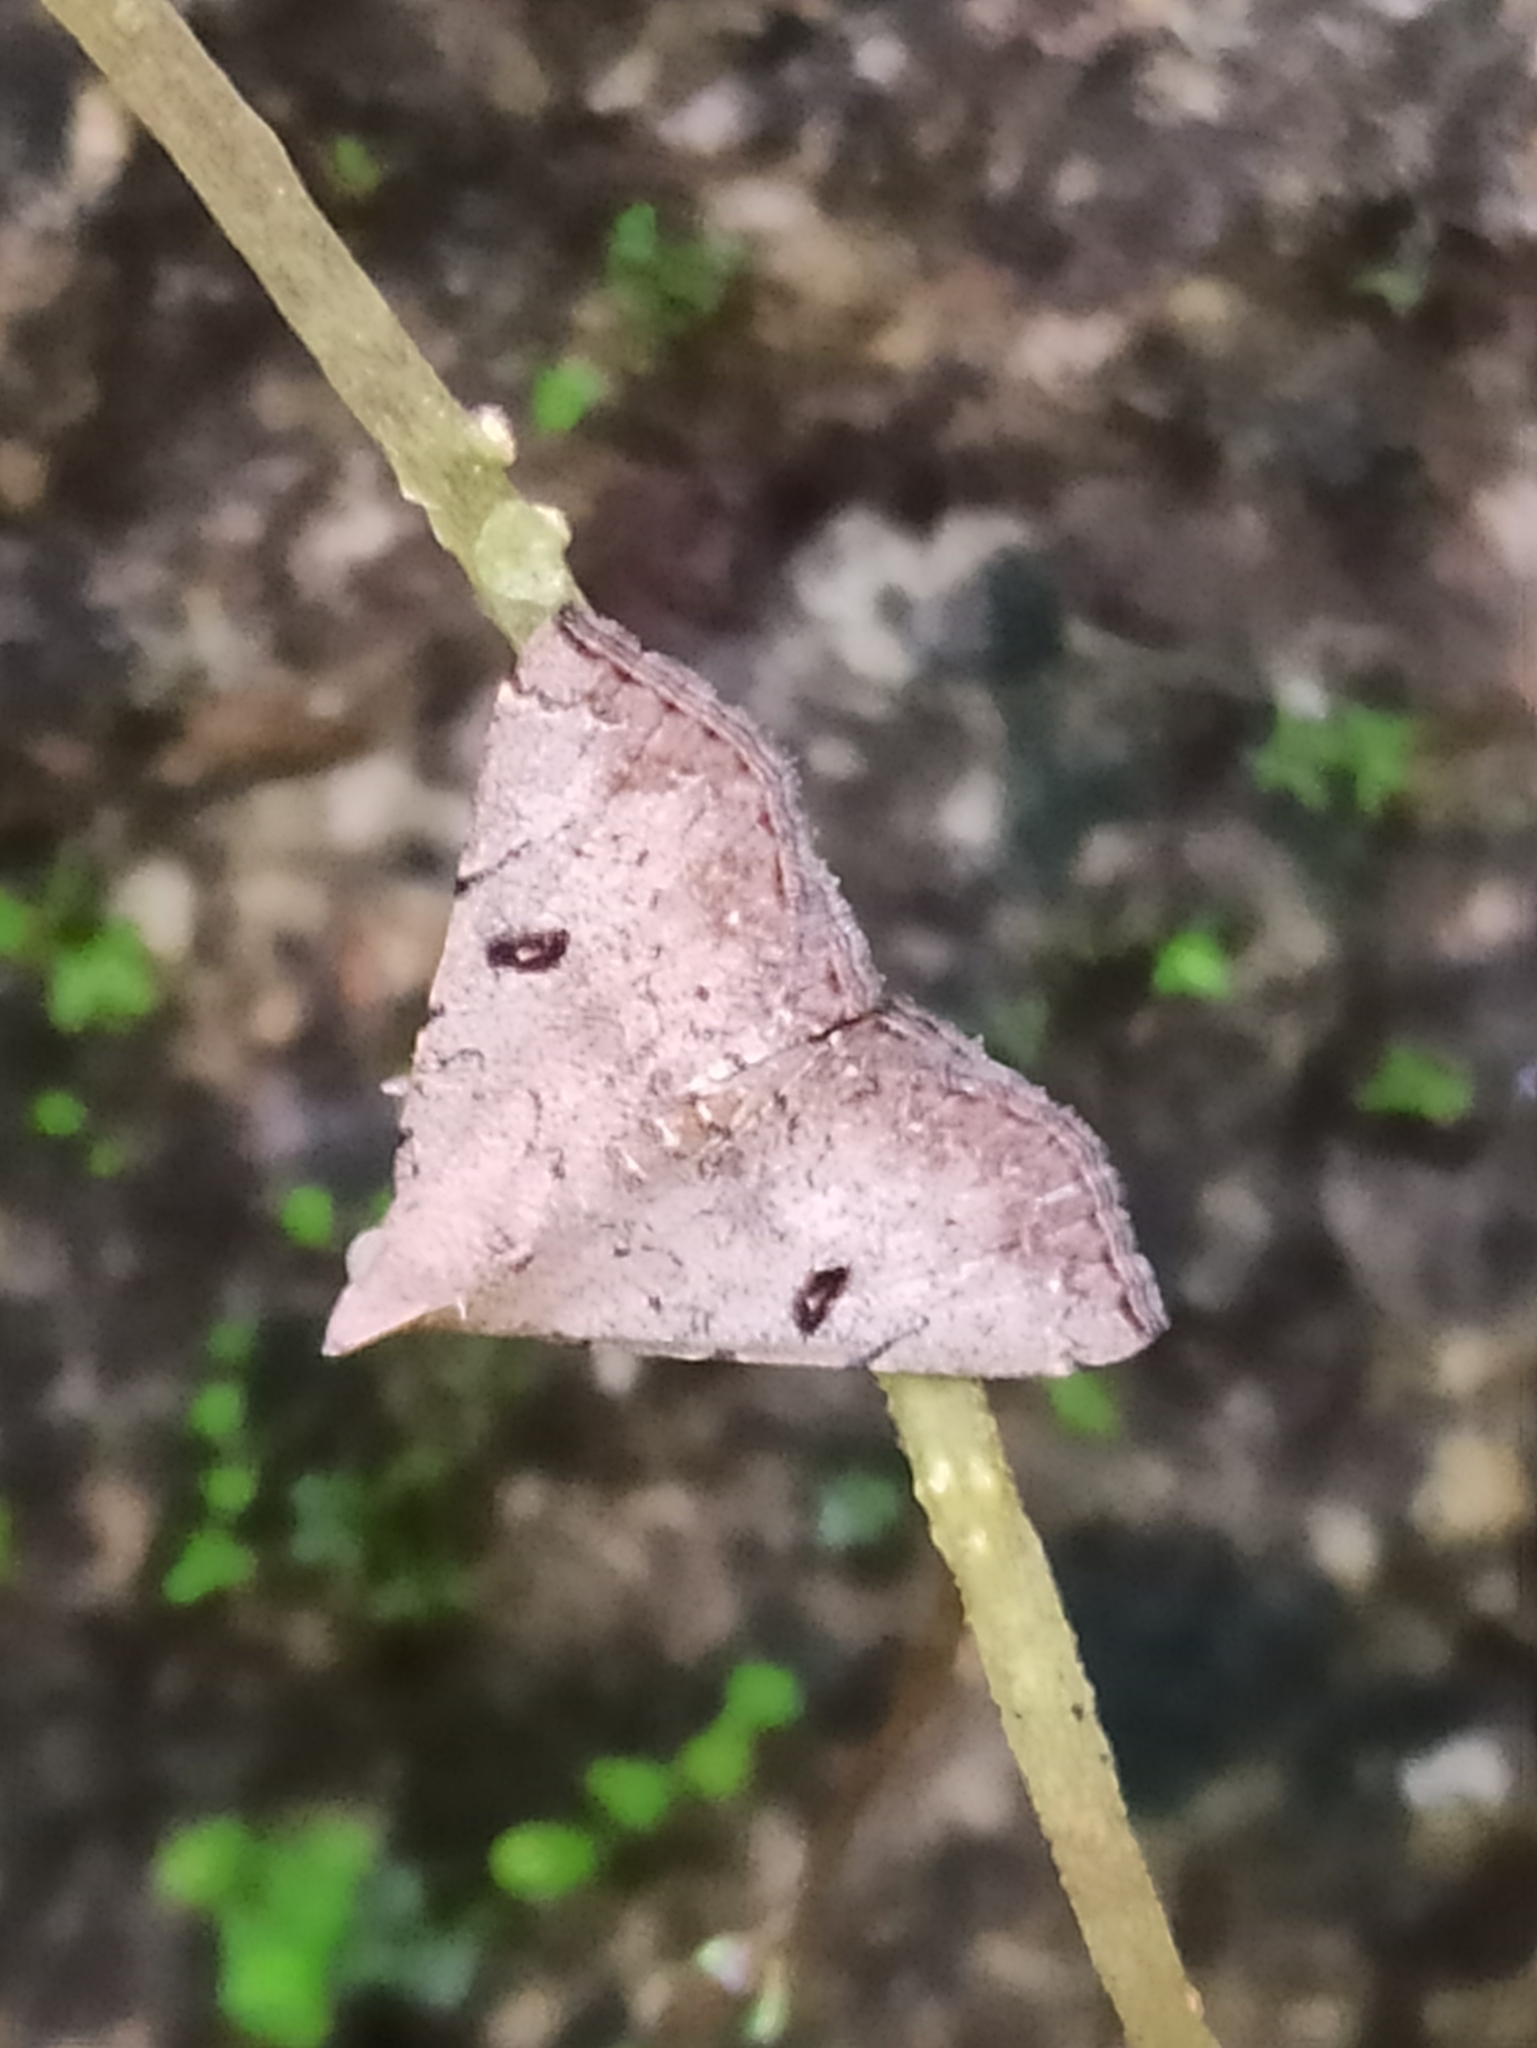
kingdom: Animalia
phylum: Arthropoda
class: Insecta
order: Lepidoptera
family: Erebidae
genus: Progonia
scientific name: Progonia oileusalis
